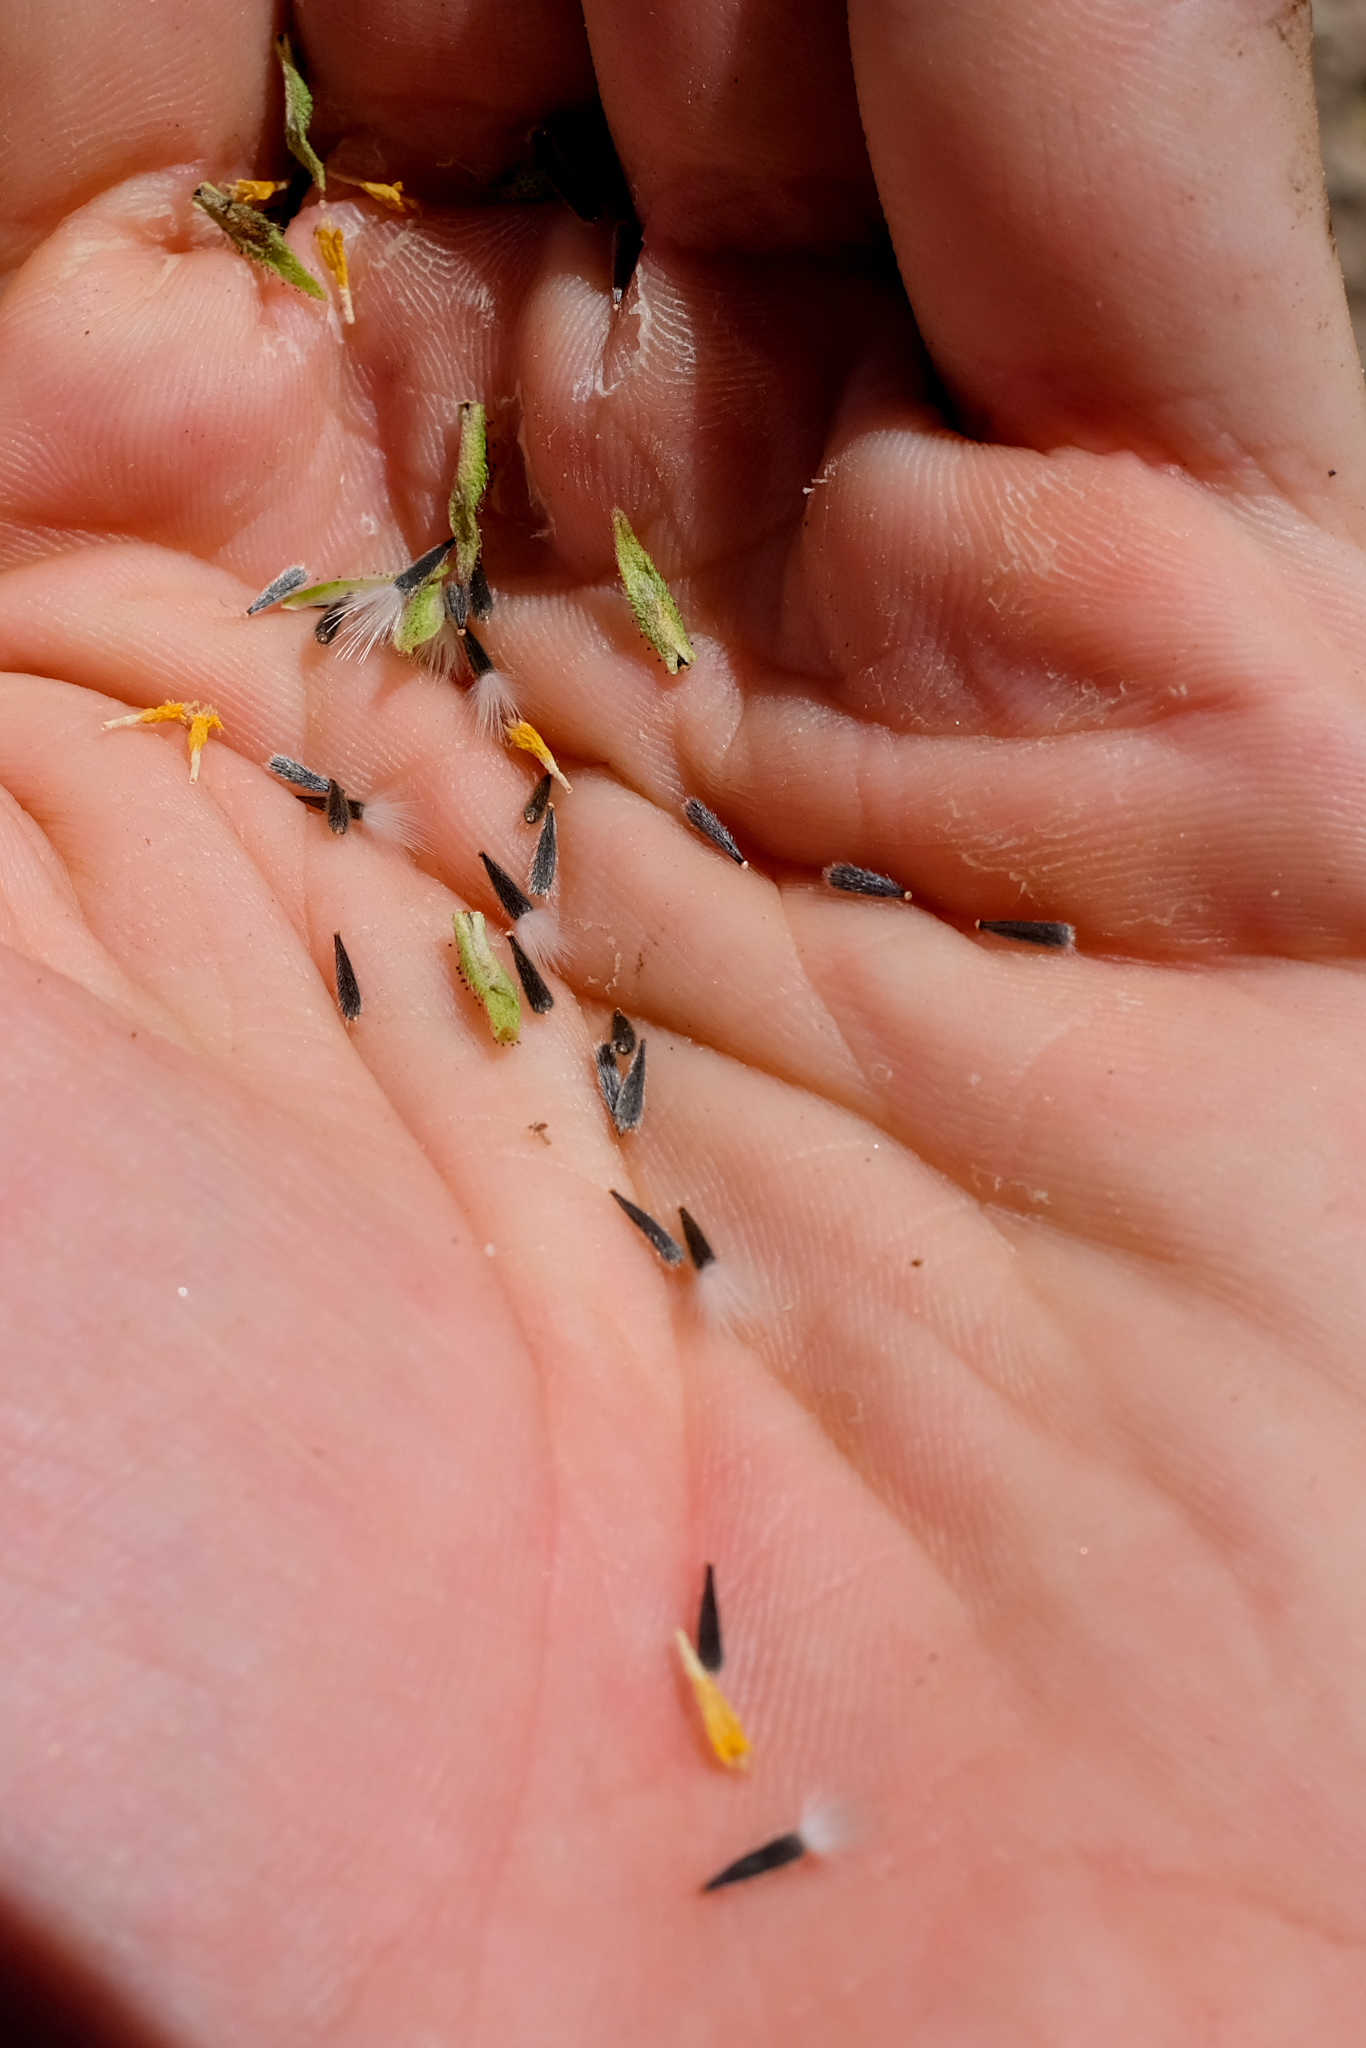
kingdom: Plantae
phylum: Tracheophyta
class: Magnoliopsida
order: Asterales
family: Asteraceae
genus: Layia
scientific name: Layia heterotricha
